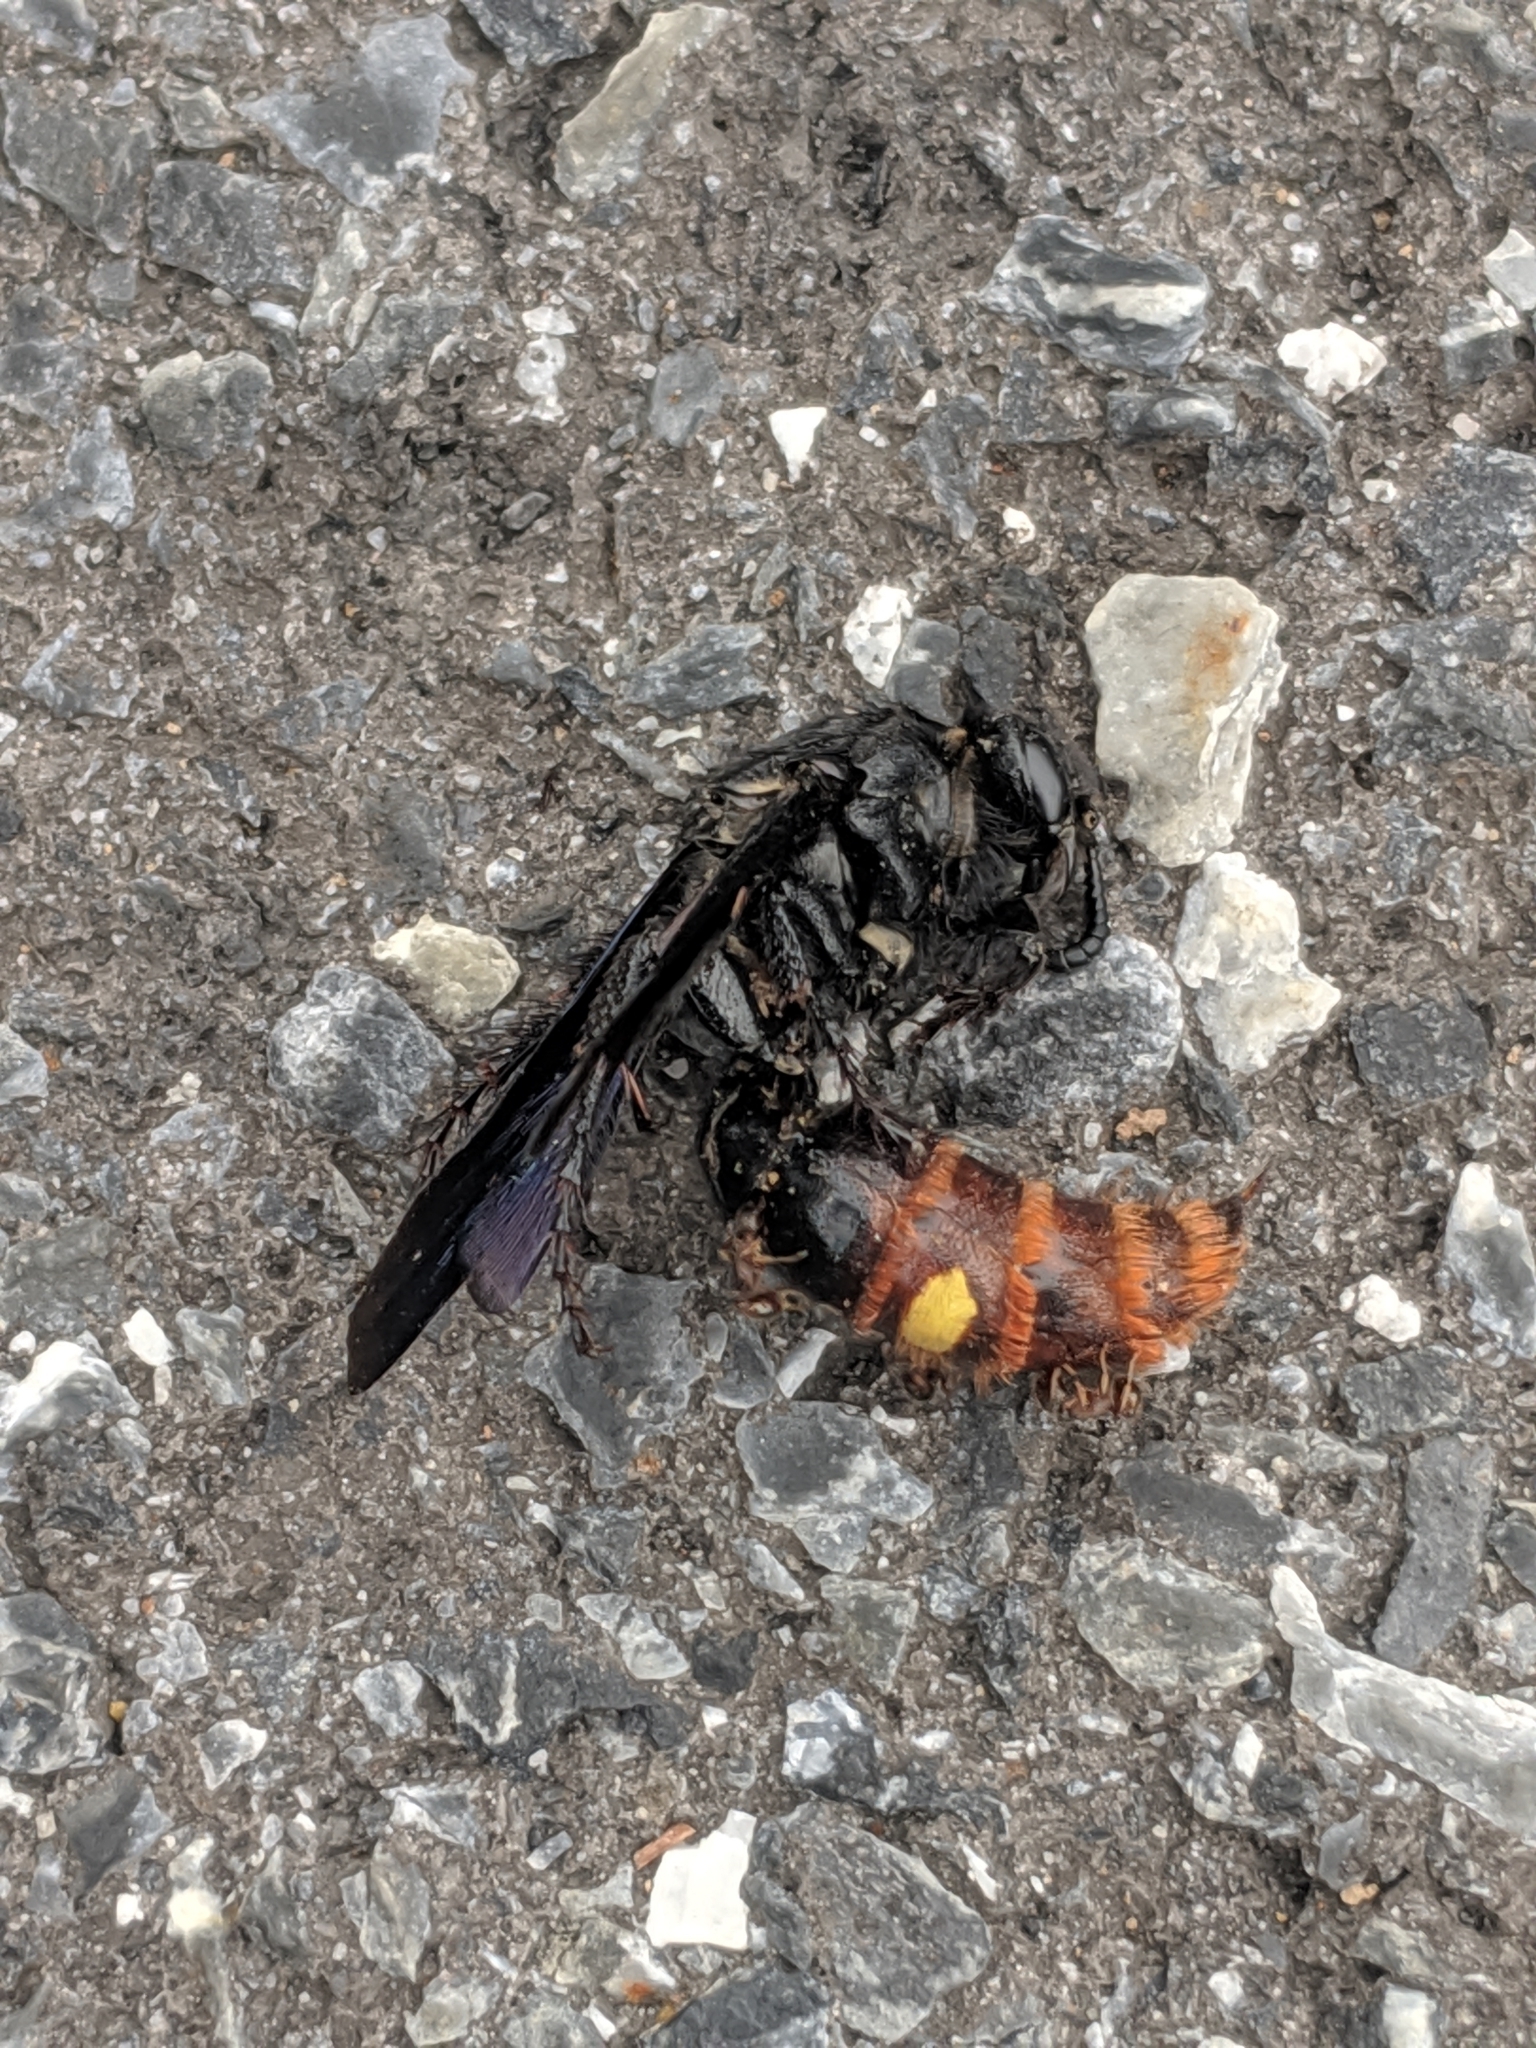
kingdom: Animalia
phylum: Arthropoda
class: Insecta
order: Hymenoptera
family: Scoliidae
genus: Scolia
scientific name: Scolia dubia
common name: Blue-winged scoliid wasp
